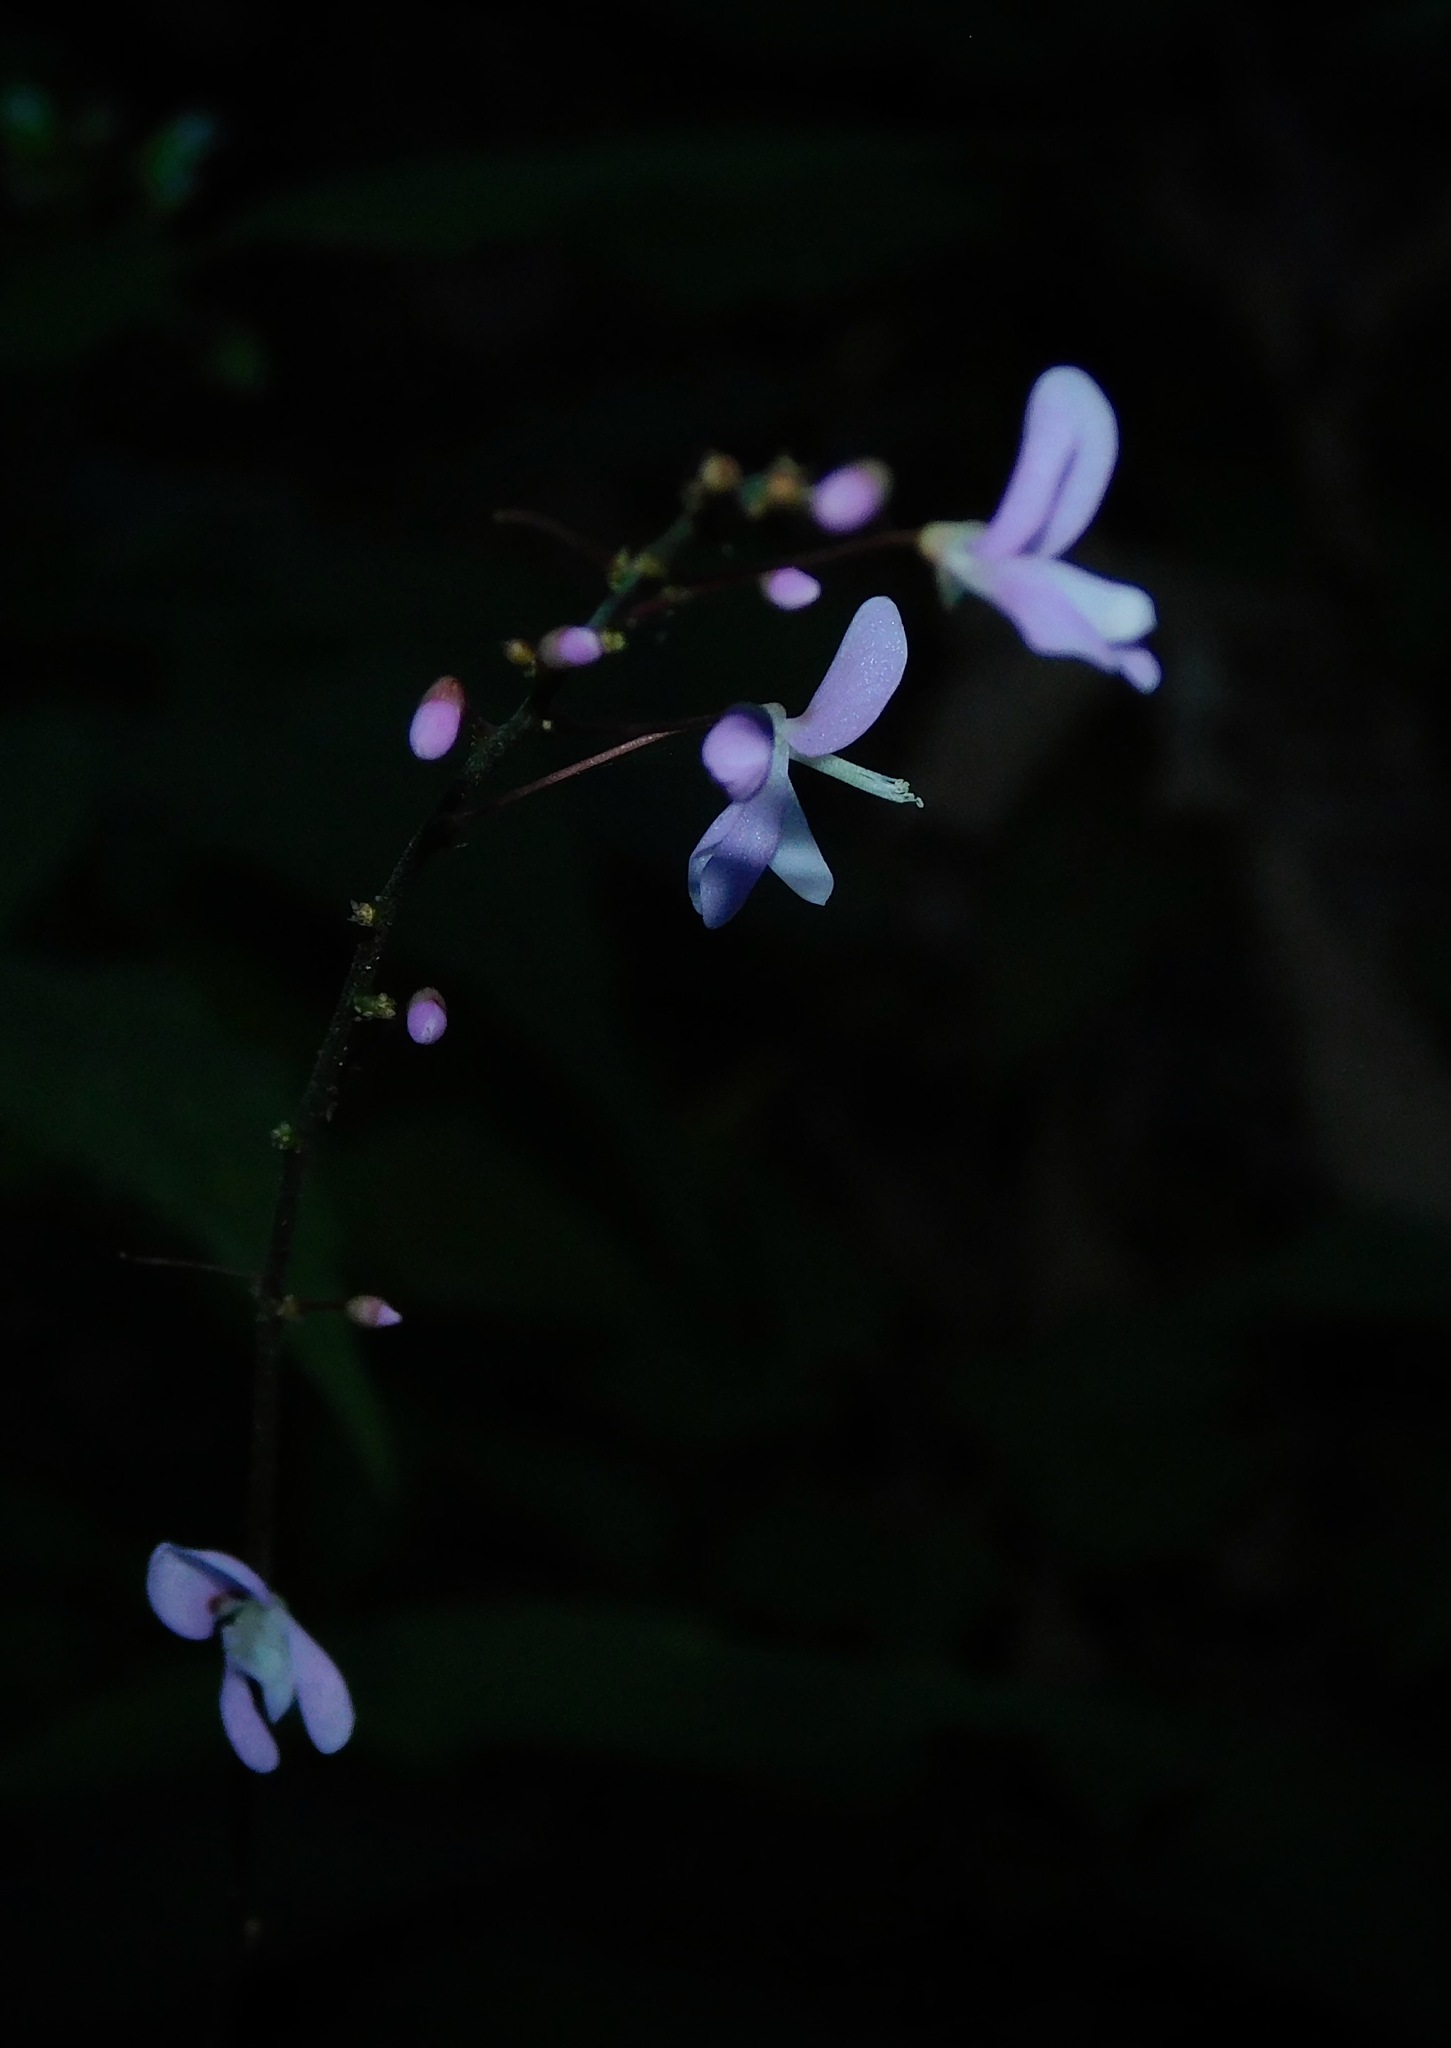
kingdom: Plantae
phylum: Tracheophyta
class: Magnoliopsida
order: Fabales
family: Fabaceae
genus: Hylodesmum
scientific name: Hylodesmum nudiflorum
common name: Bare-stemmed tick-trefoil
